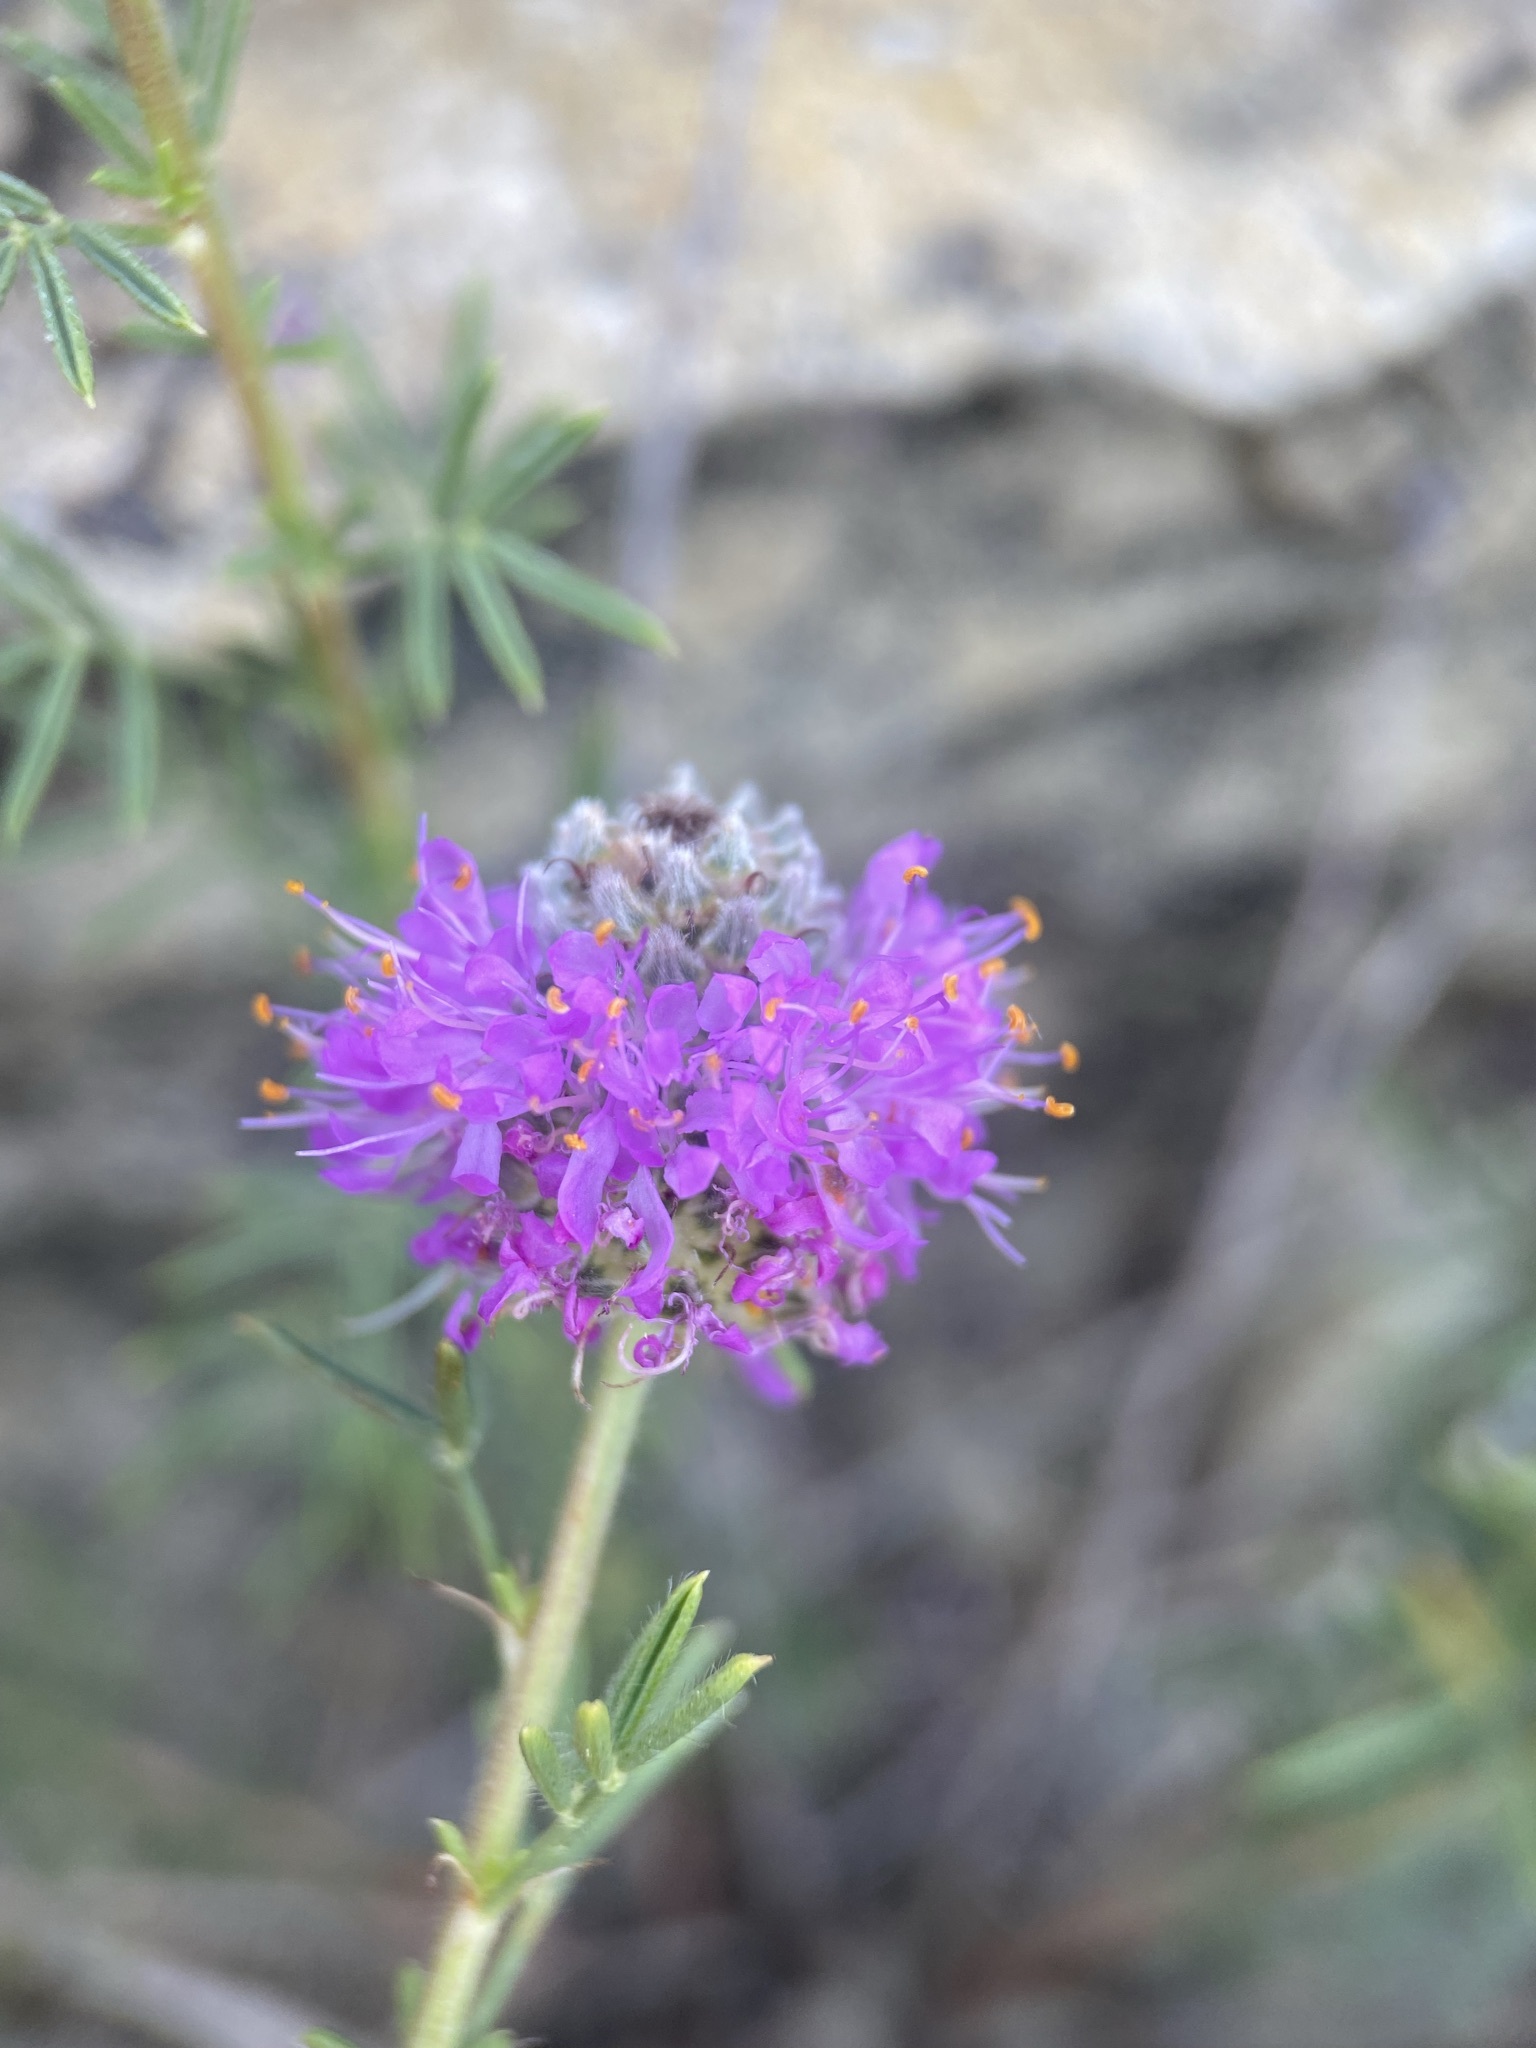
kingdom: Plantae
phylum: Tracheophyta
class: Magnoliopsida
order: Fabales
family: Fabaceae
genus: Dalea
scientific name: Dalea purpurea
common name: Purple prairie-clover
